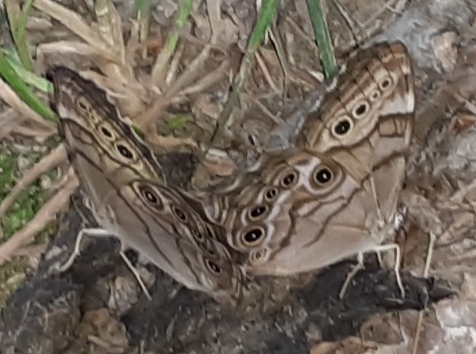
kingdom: Animalia
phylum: Arthropoda
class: Insecta
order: Lepidoptera
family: Nymphalidae
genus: Lethe
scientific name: Lethe anthedon
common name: Northern pearly-eye
